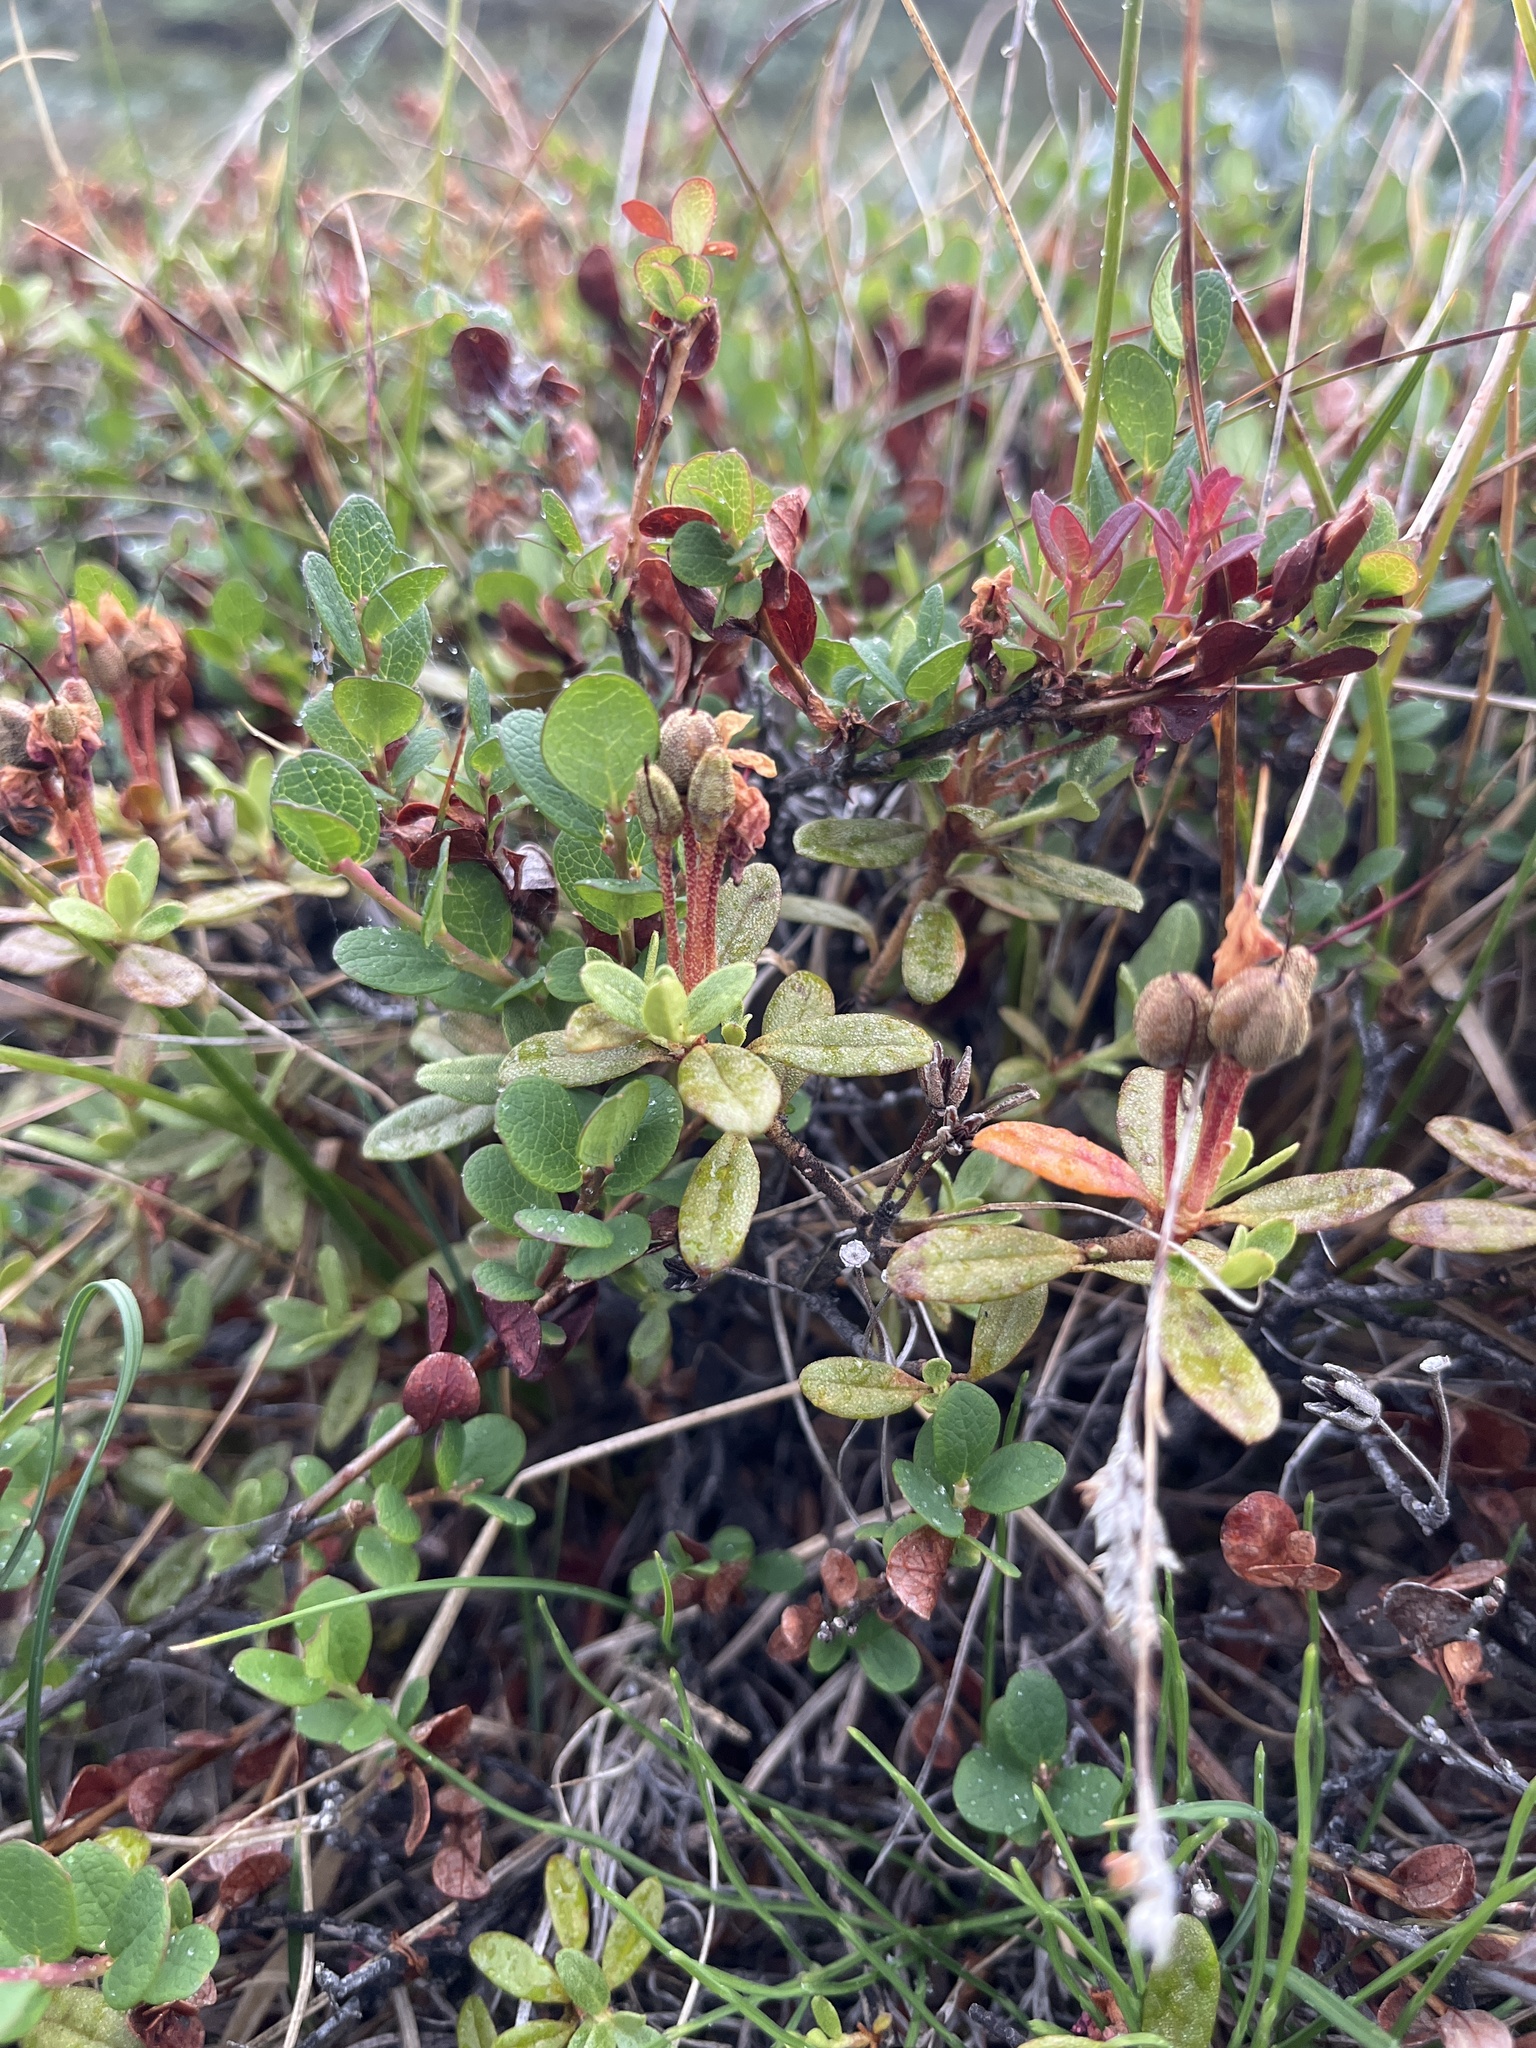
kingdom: Plantae
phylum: Tracheophyta
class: Magnoliopsida
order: Ericales
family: Ericaceae
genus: Rhododendron
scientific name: Rhododendron lapponicum
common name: Lapland rhododendron
